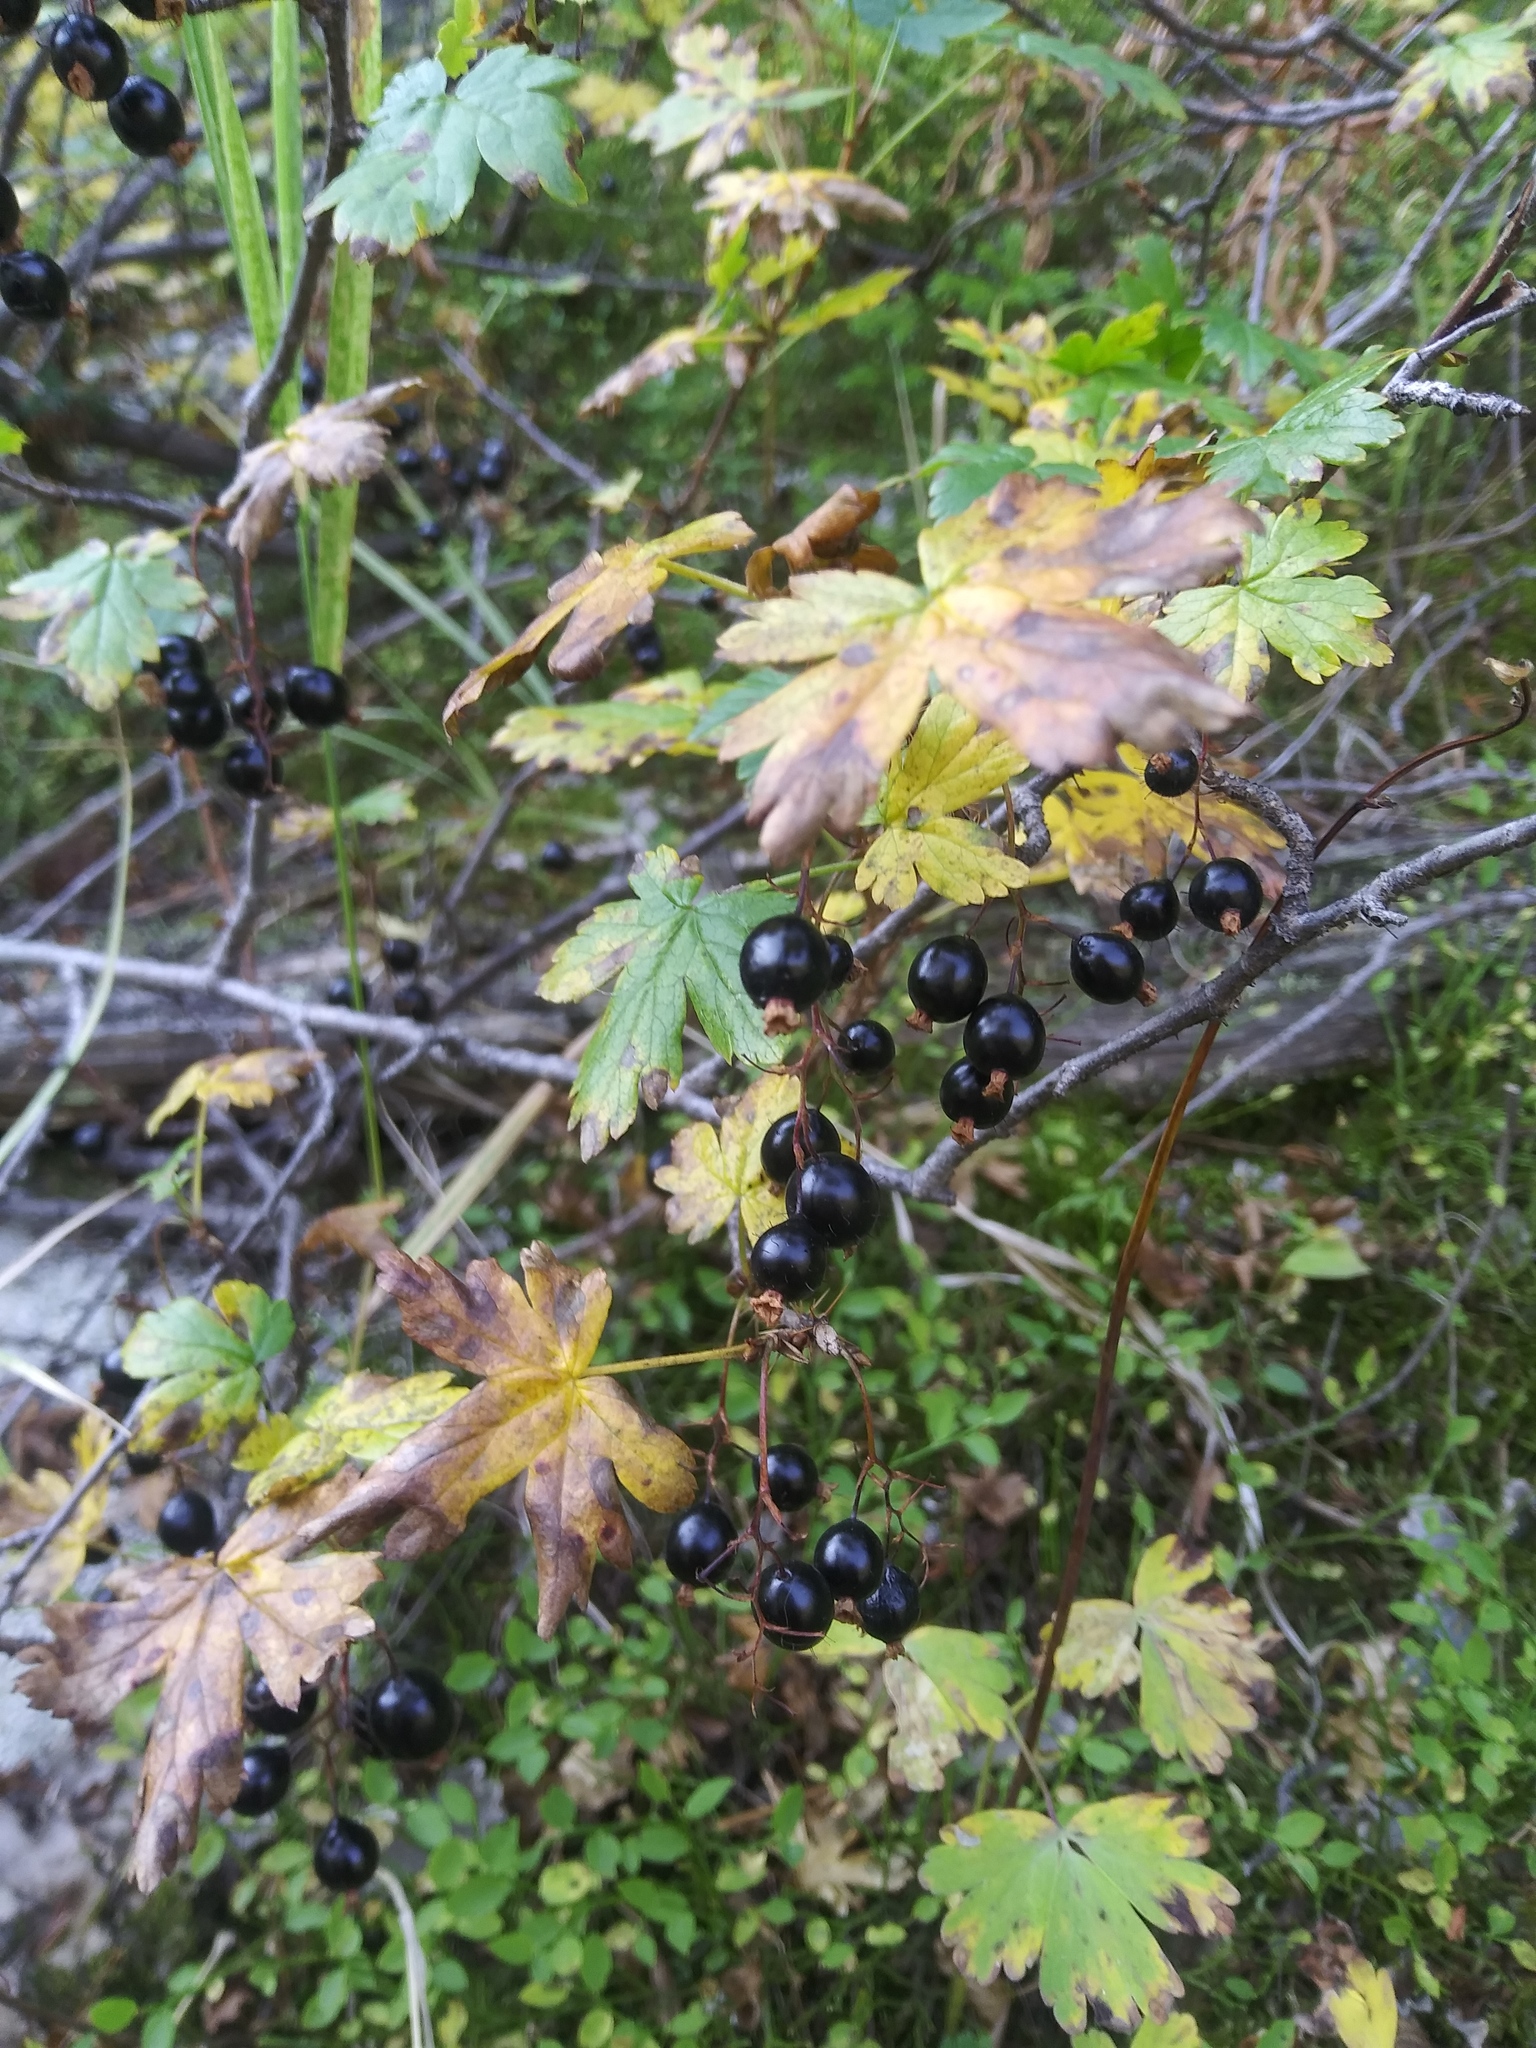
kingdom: Plantae
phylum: Tracheophyta
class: Magnoliopsida
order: Saxifragales
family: Grossulariaceae
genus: Ribes
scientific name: Ribes lacustre
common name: Black gooseberry
